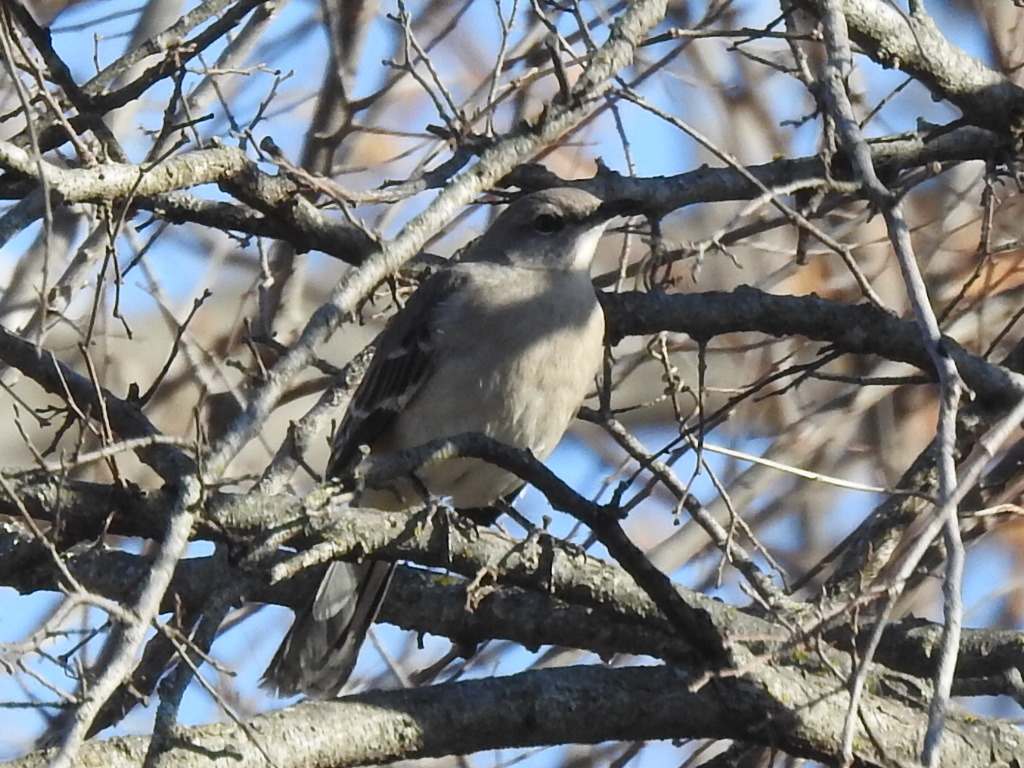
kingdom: Animalia
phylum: Chordata
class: Aves
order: Passeriformes
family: Mimidae
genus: Mimus
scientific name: Mimus polyglottos
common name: Northern mockingbird
